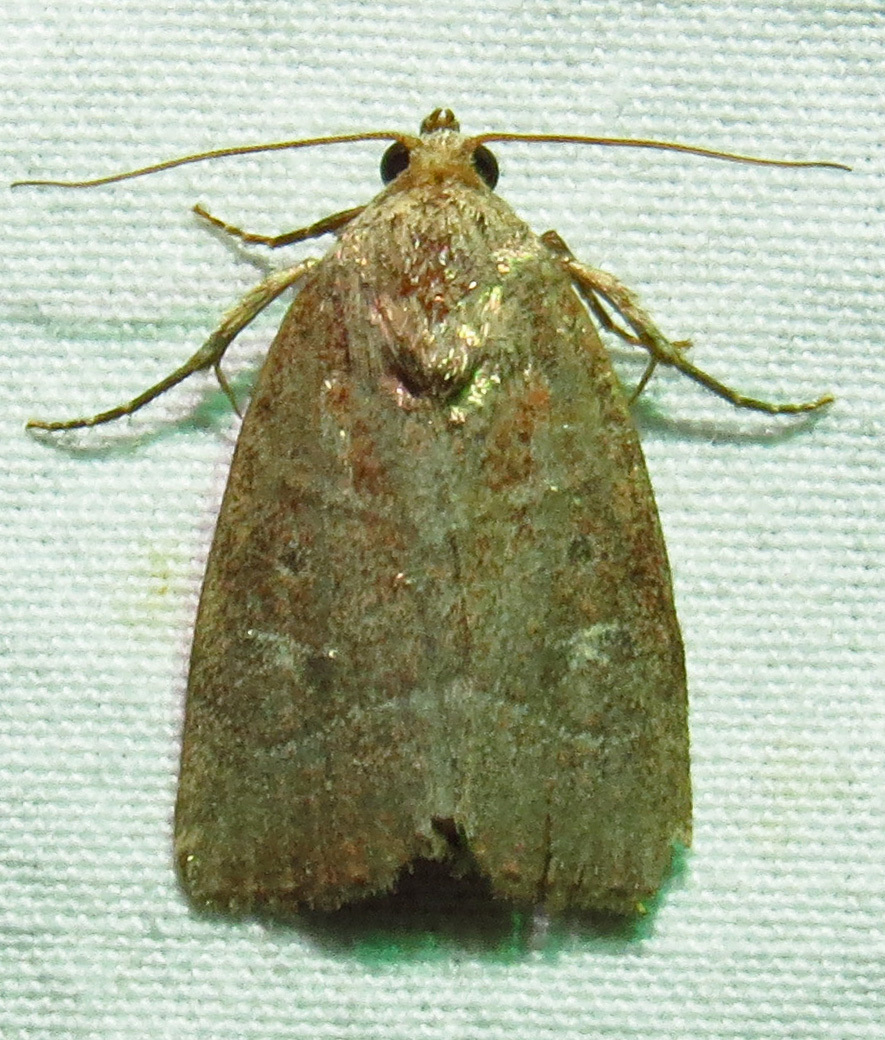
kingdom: Animalia
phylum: Arthropoda
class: Insecta
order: Lepidoptera
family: Noctuidae
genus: Elaphria
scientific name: Elaphria grata
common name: Grateful midget moth
